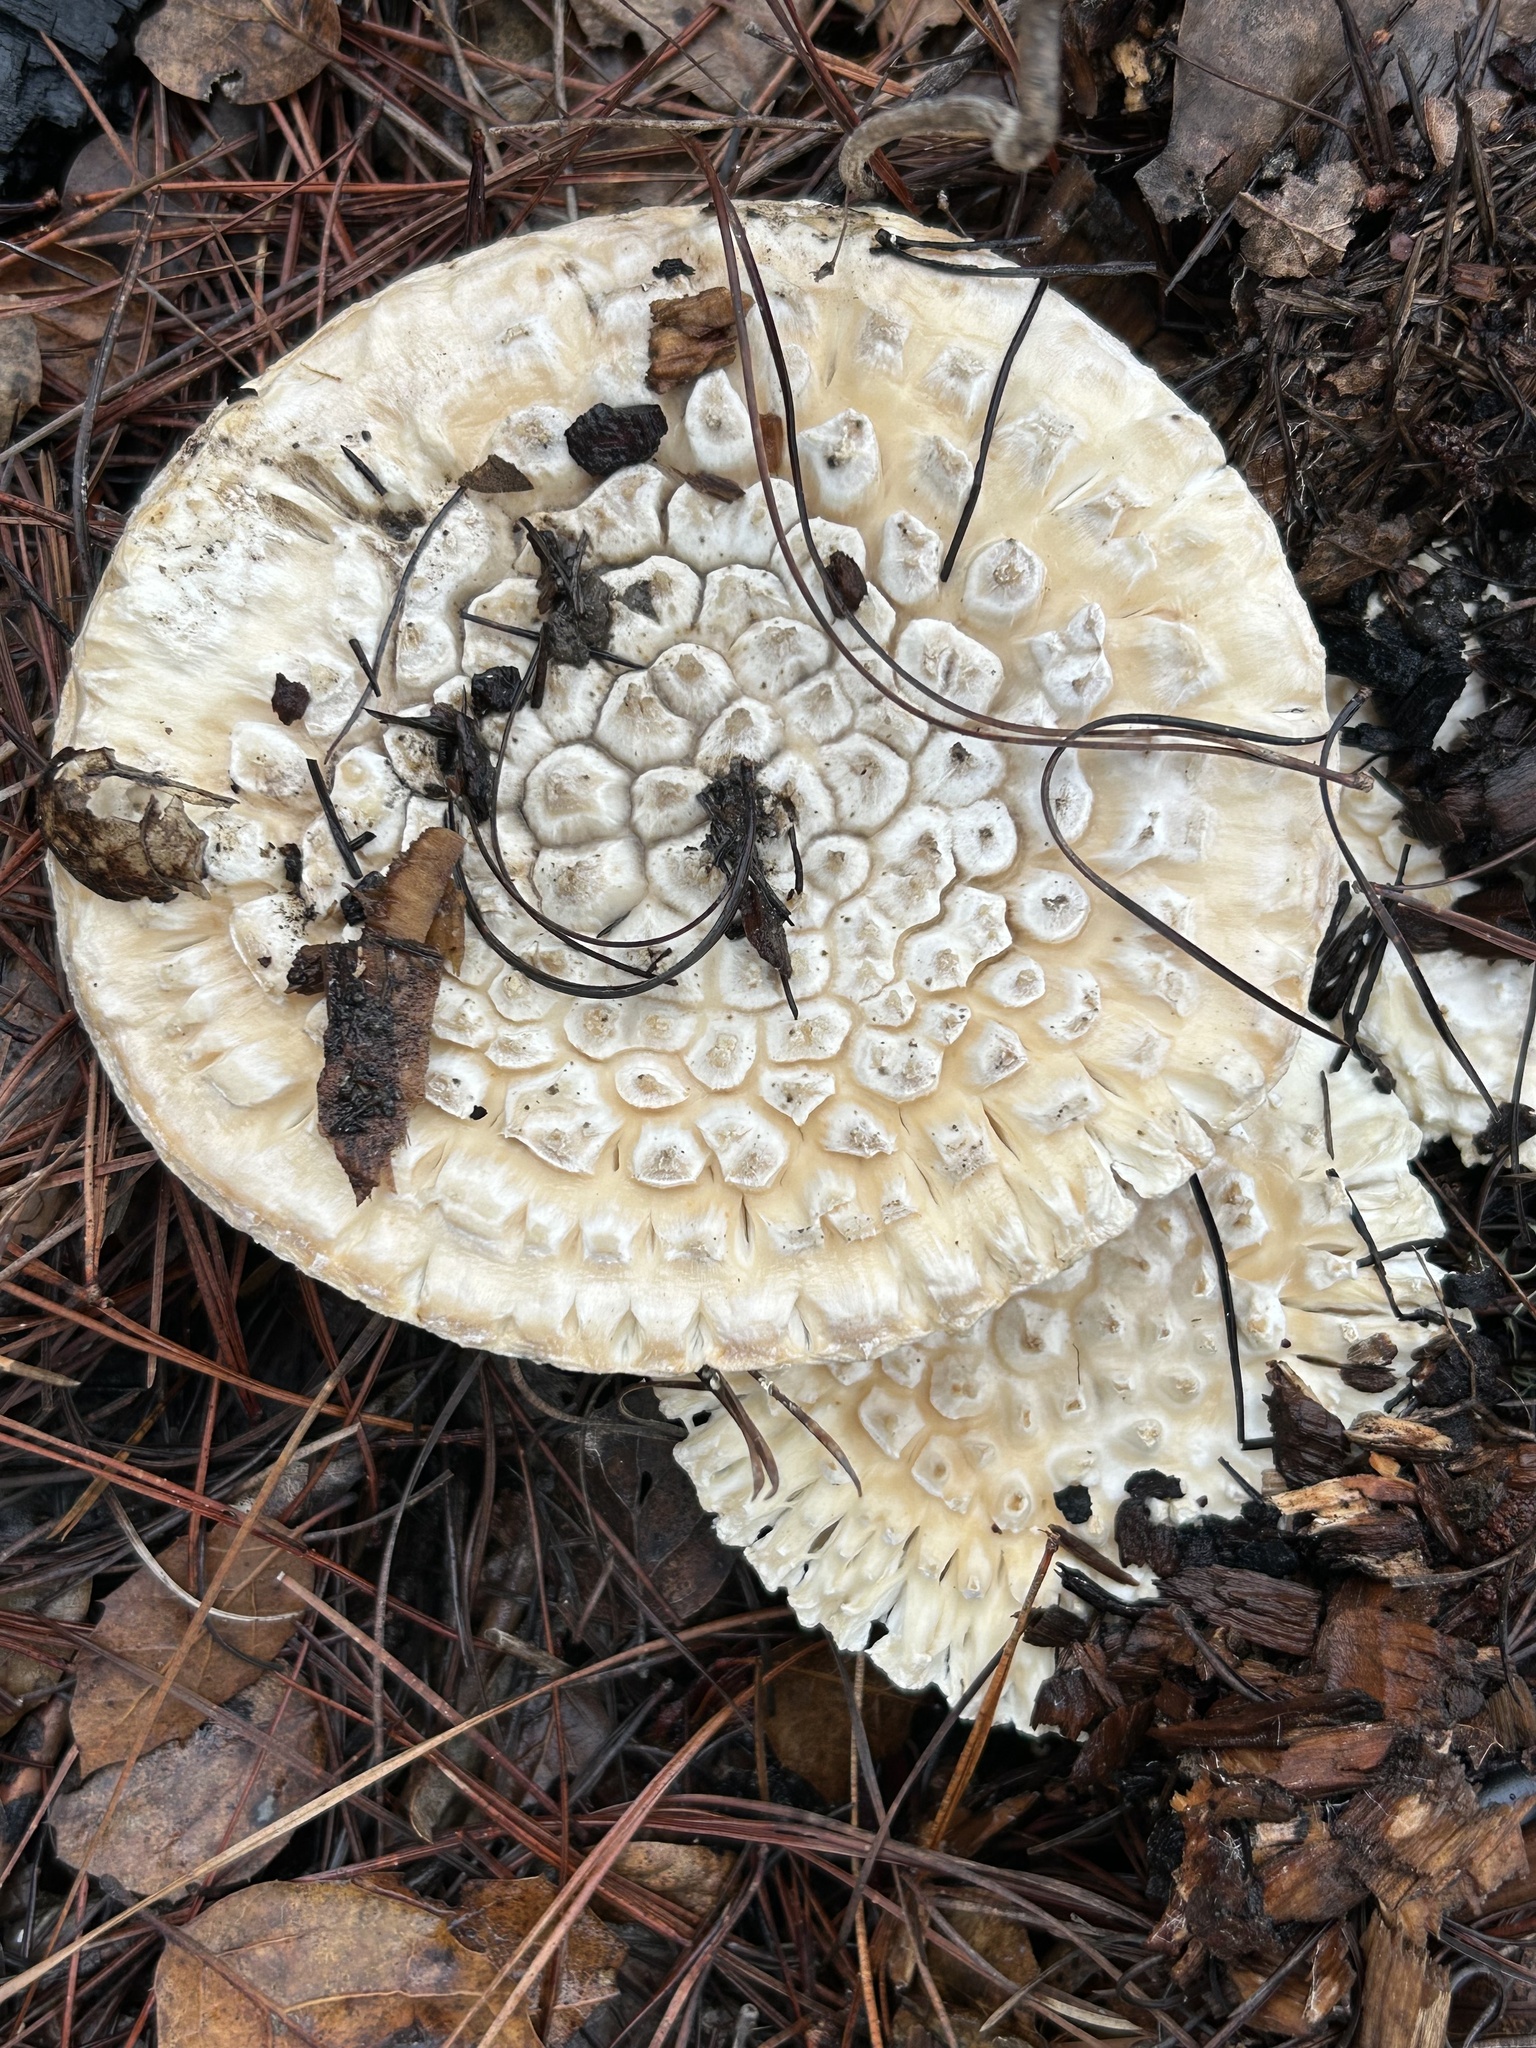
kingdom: Fungi
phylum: Basidiomycota
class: Agaricomycetes
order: Agaricales
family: Amanitaceae
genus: Amanita
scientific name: Amanita magniverrucata
